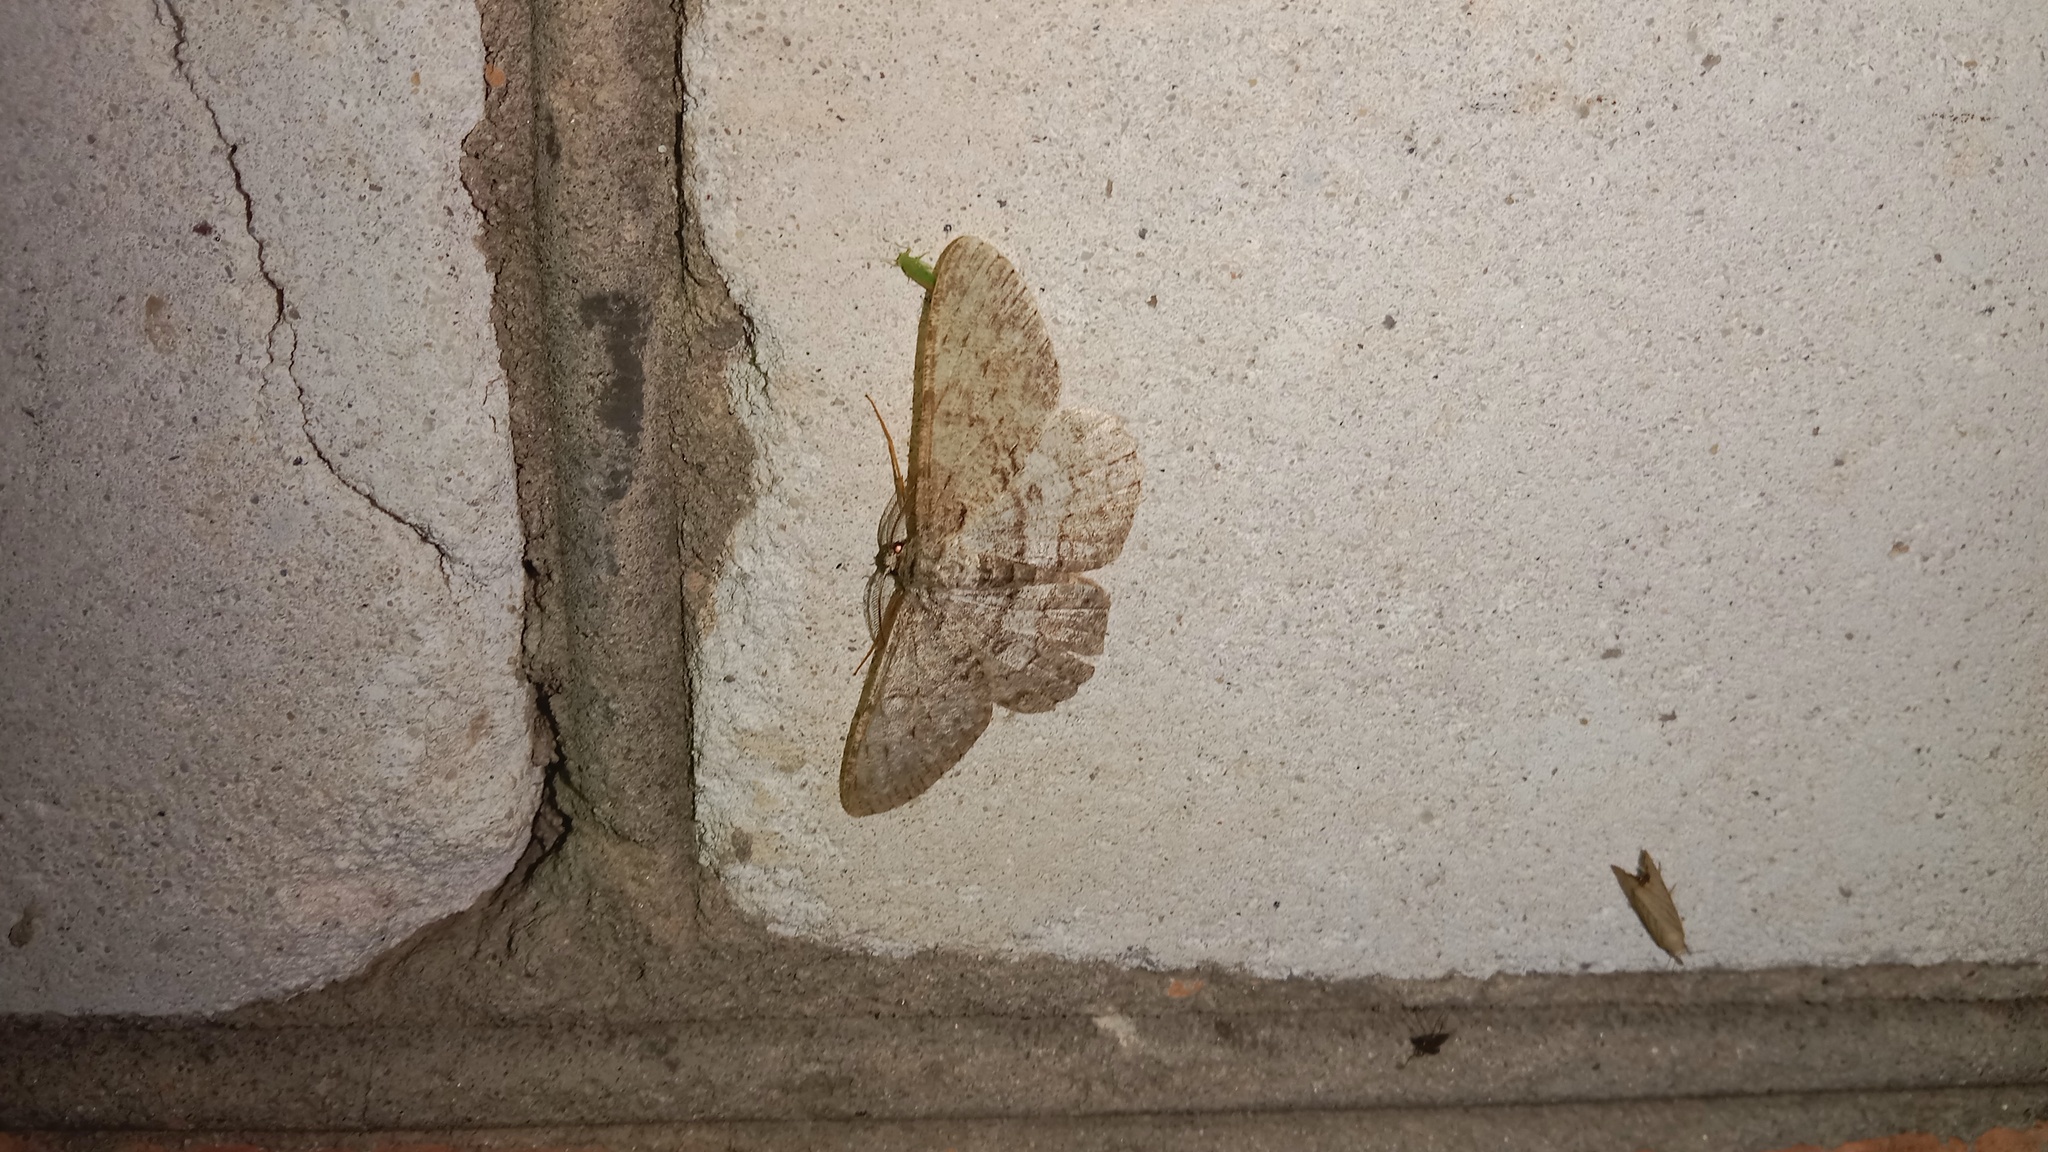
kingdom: Animalia
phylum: Arthropoda
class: Insecta
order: Lepidoptera
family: Geometridae
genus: Hypomecis
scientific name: Hypomecis punctinalis
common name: Pale oak beauty
